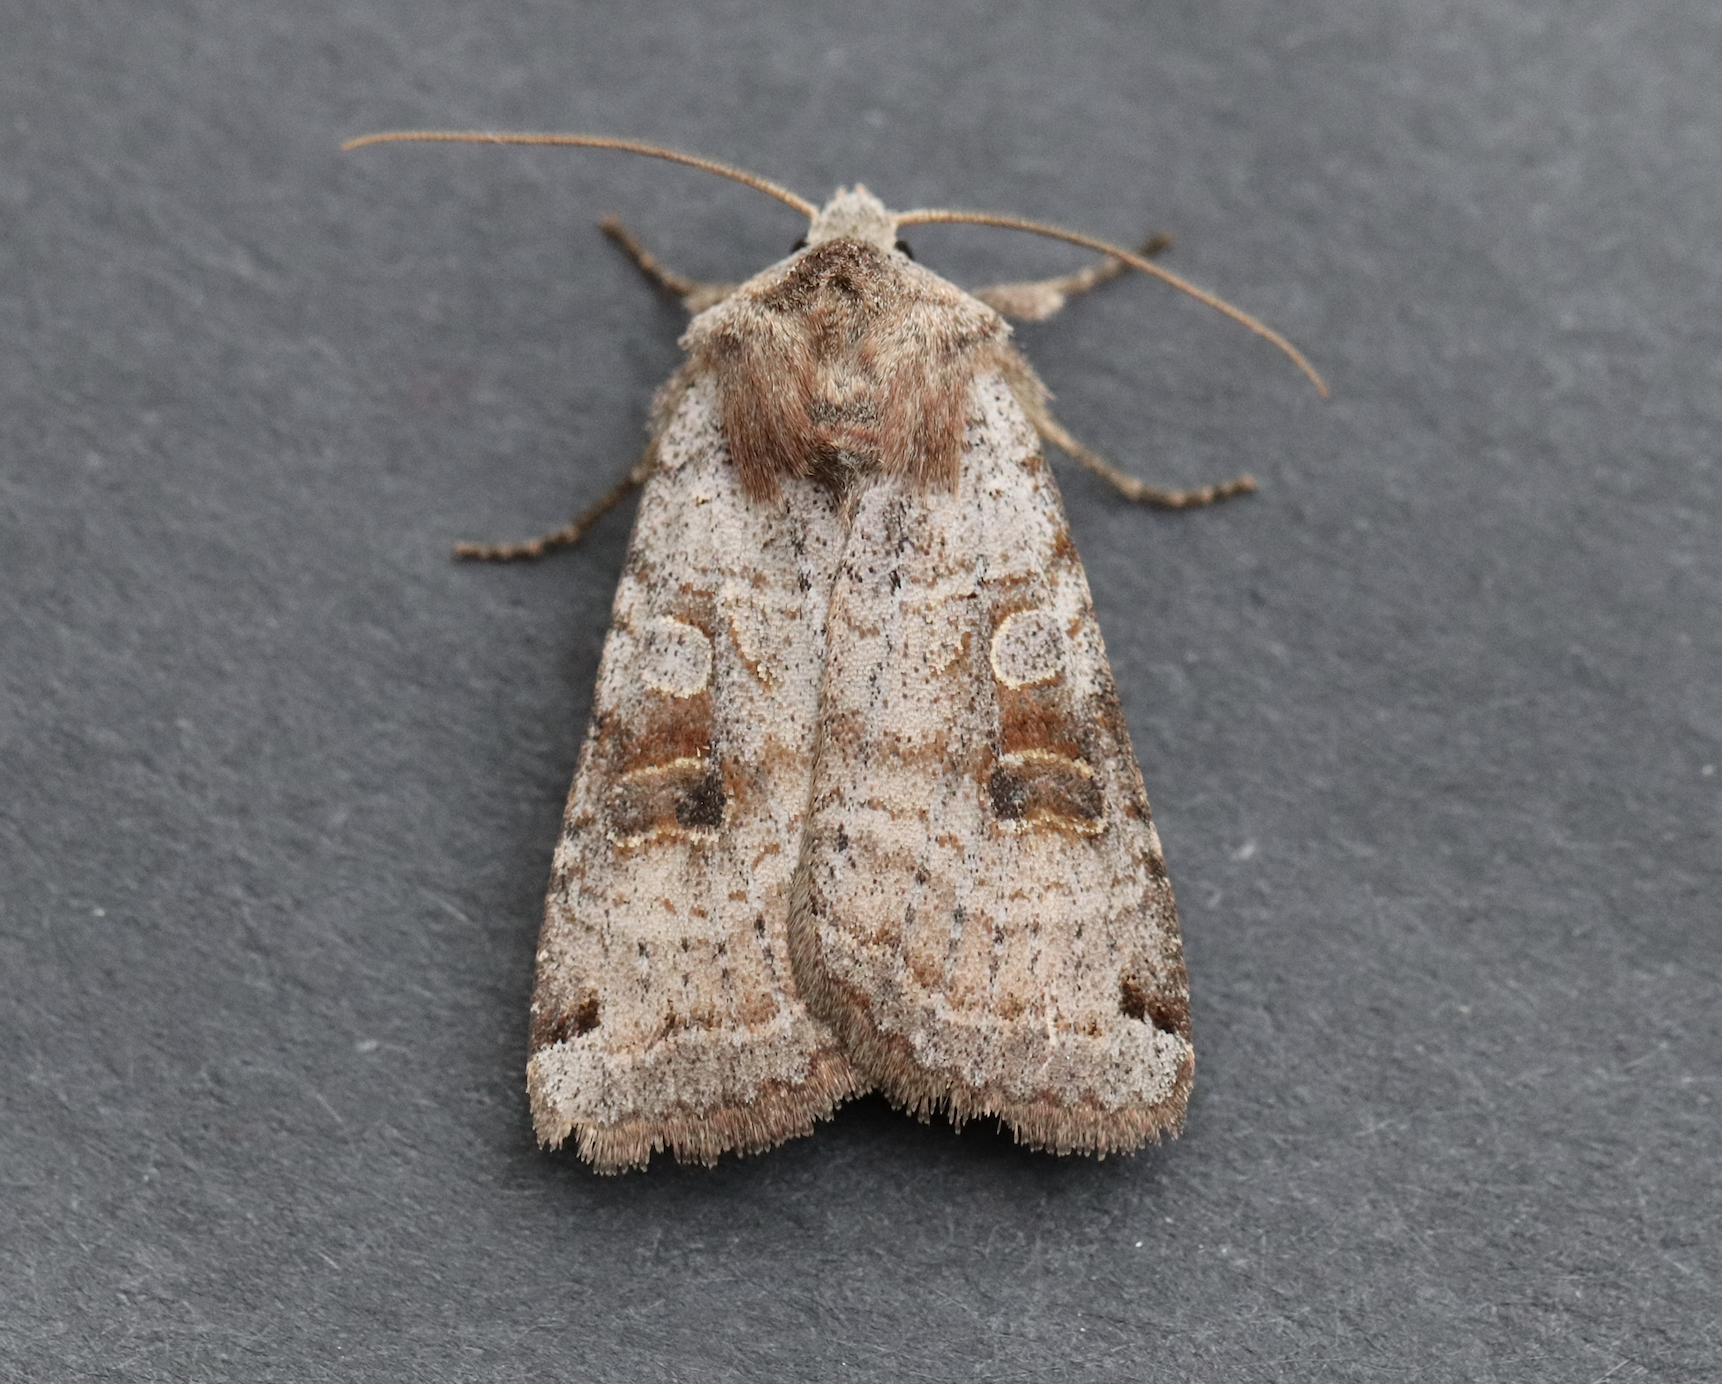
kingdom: Animalia
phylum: Arthropoda
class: Insecta
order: Lepidoptera
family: Noctuidae
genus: Xestia
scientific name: Xestia smithii
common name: Smith's dart
